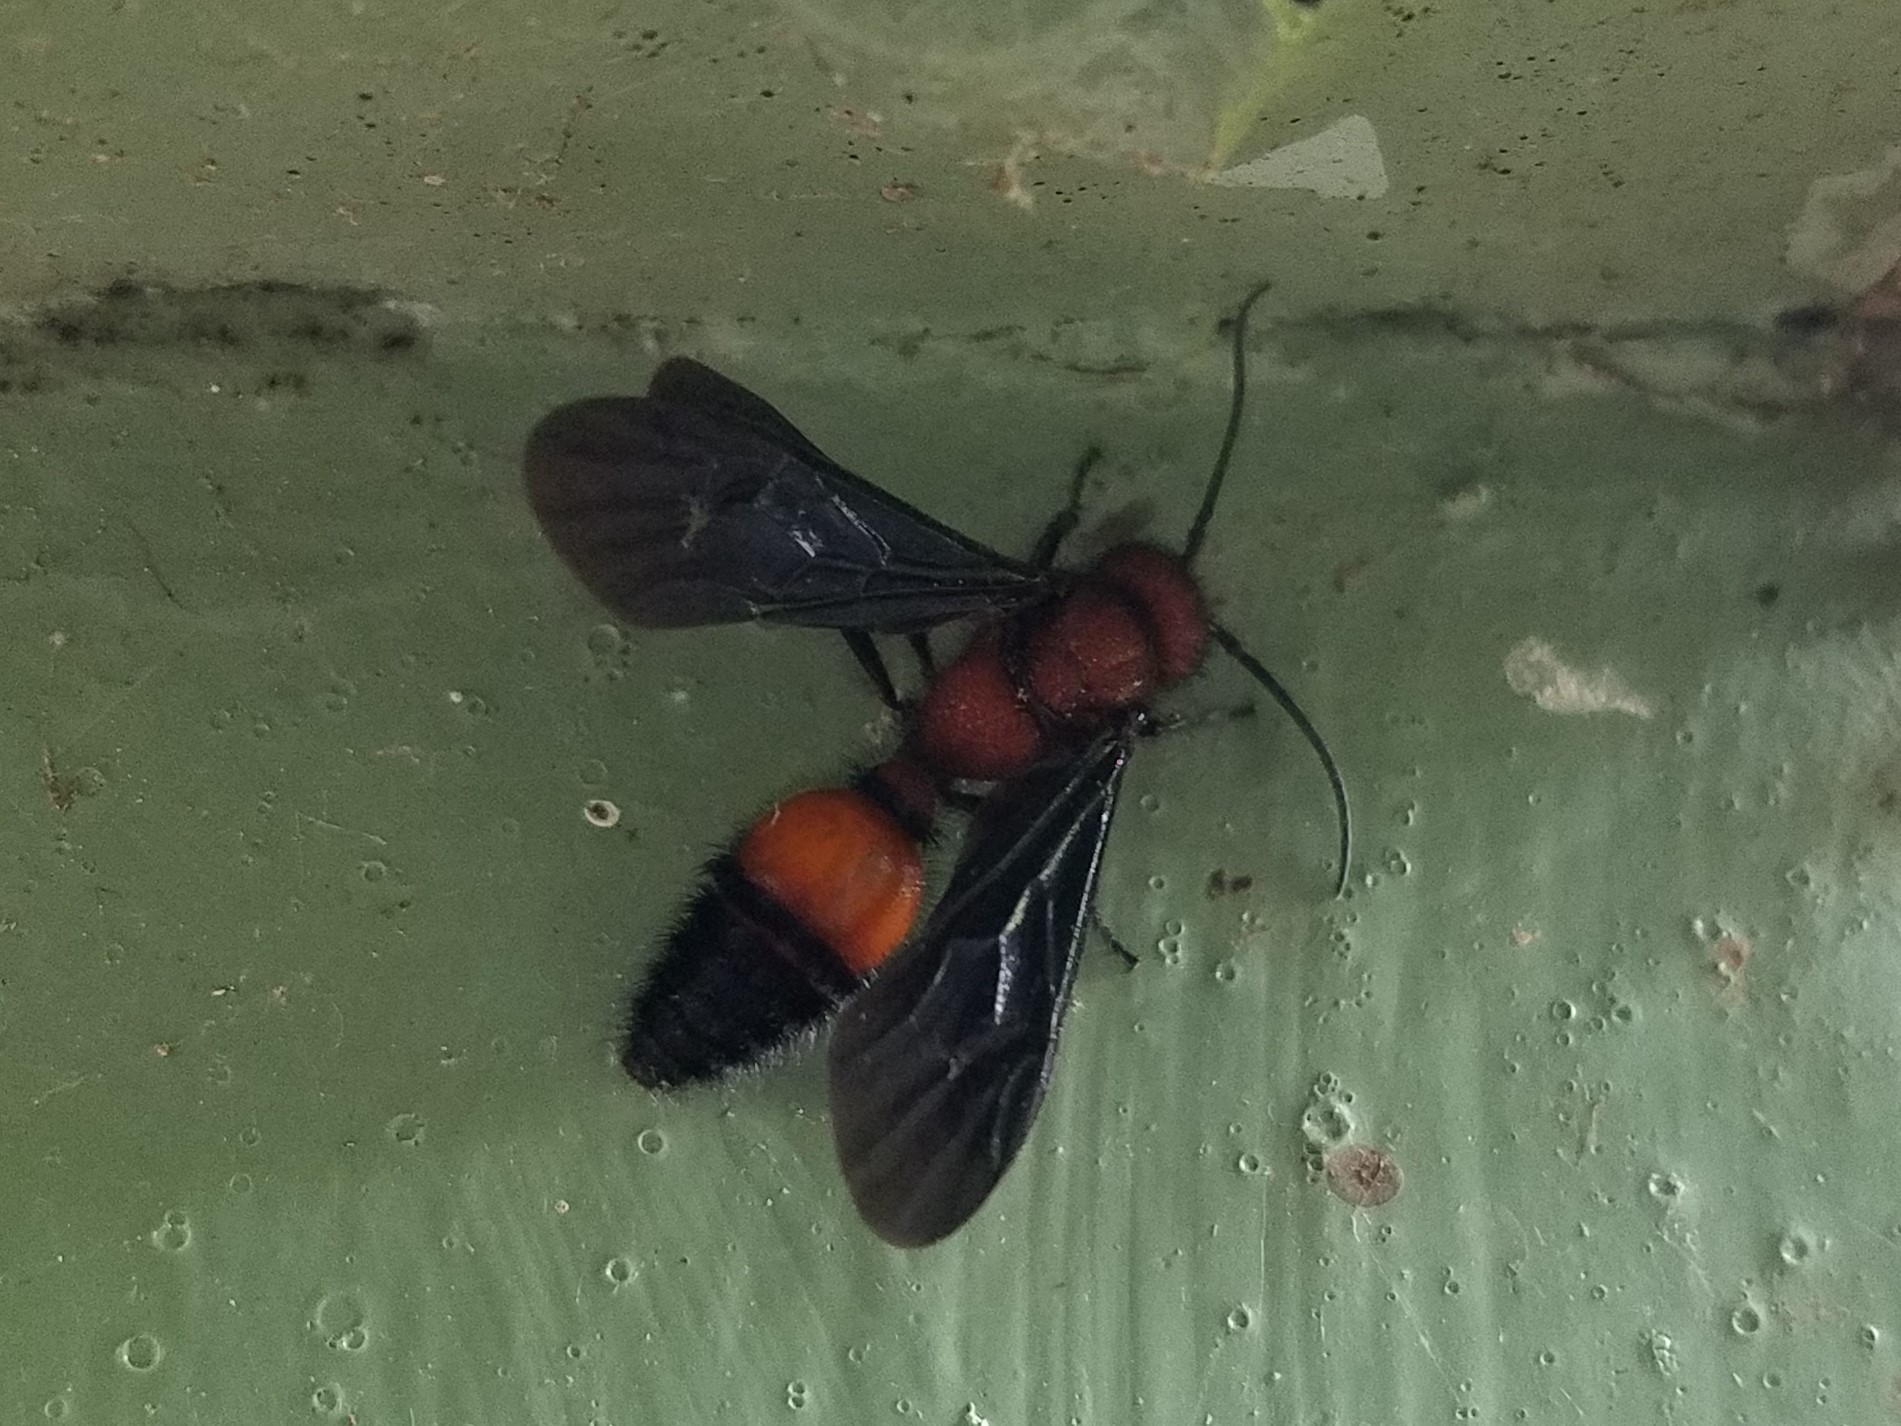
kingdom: Animalia
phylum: Arthropoda
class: Insecta
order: Hymenoptera
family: Mutillidae
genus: Sphaeropthalma
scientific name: Sphaeropthalma
